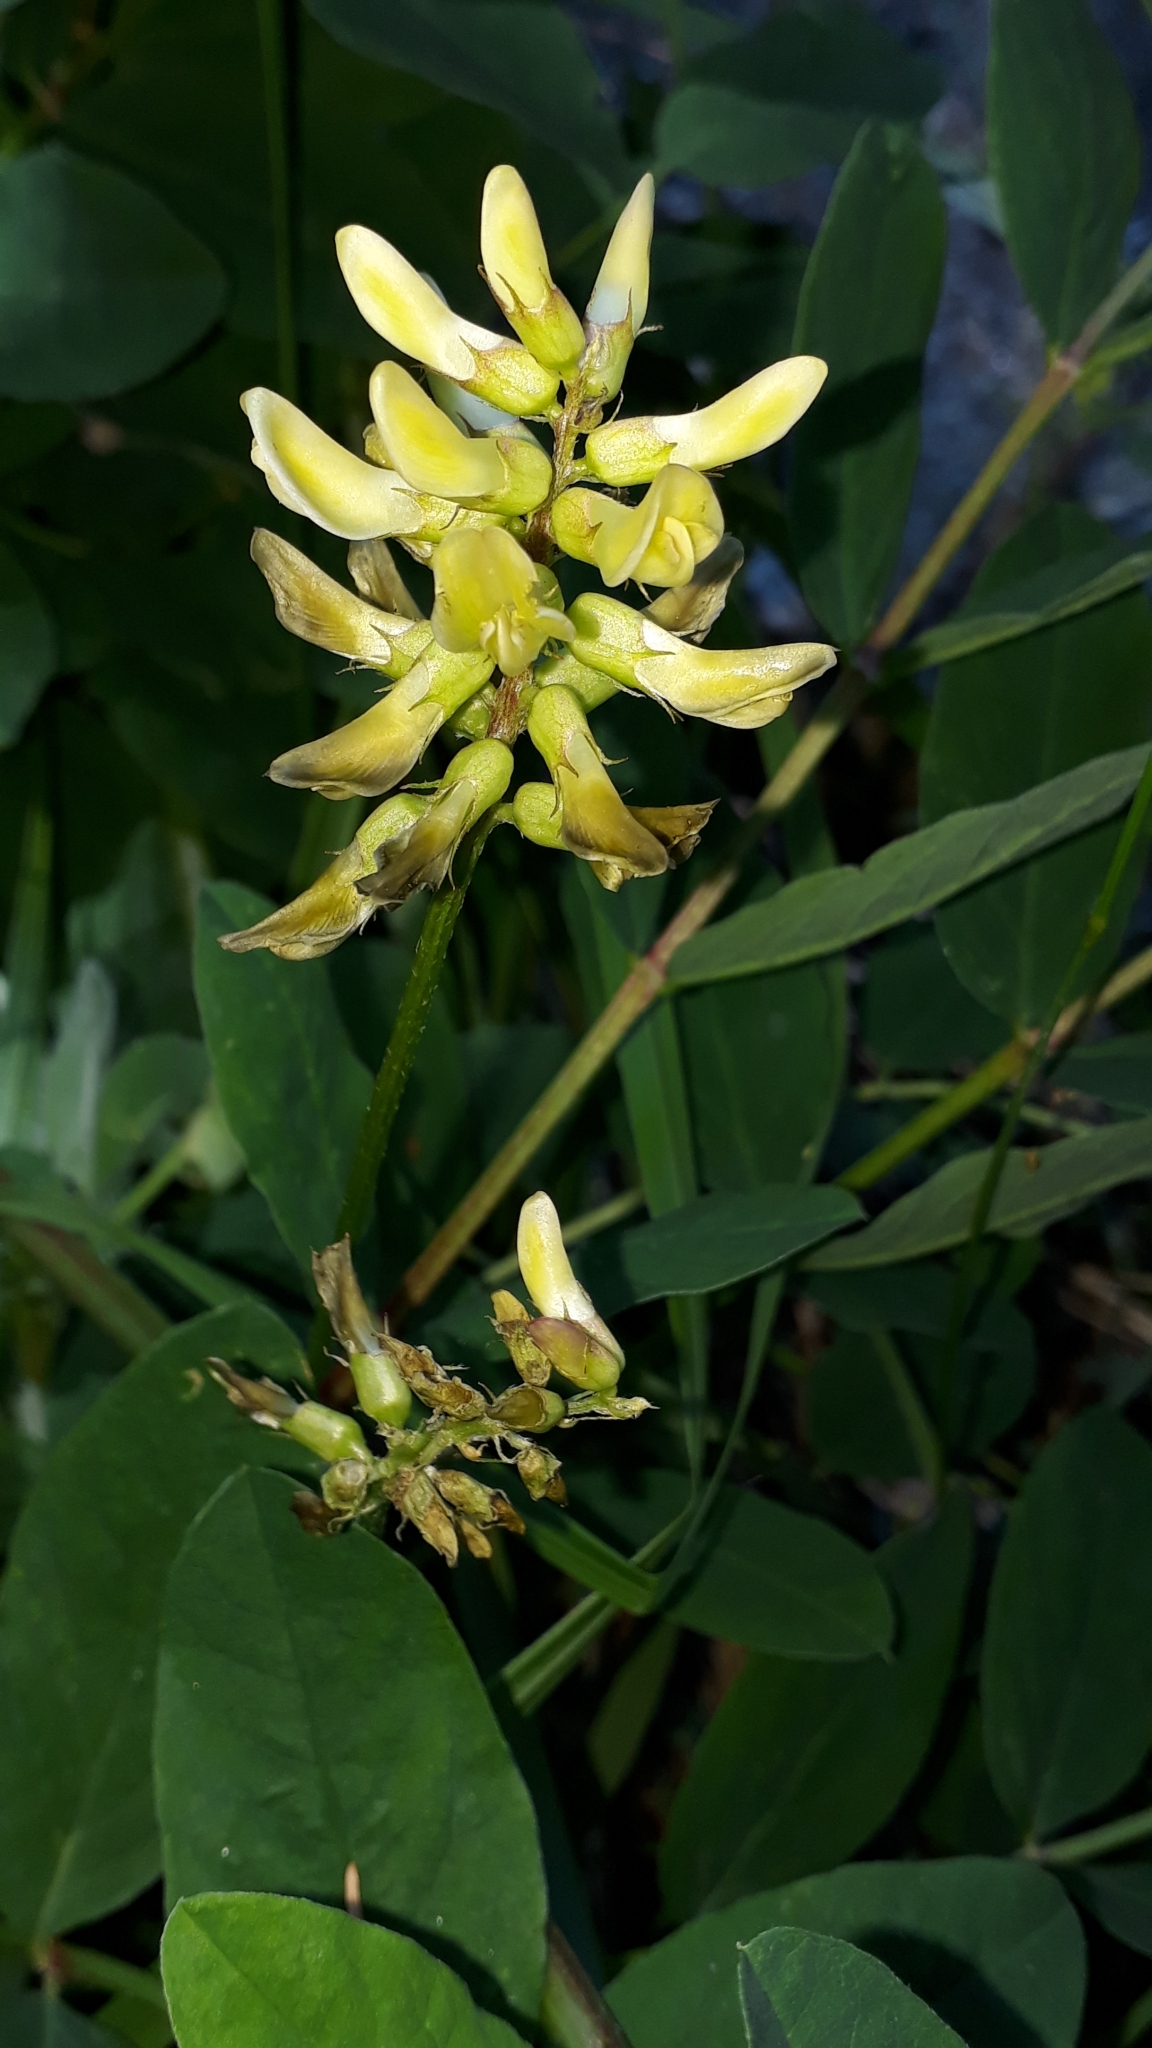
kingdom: Plantae
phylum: Tracheophyta
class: Magnoliopsida
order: Fabales
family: Fabaceae
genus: Astragalus
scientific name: Astragalus glycyphyllos
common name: Wild liquorice
